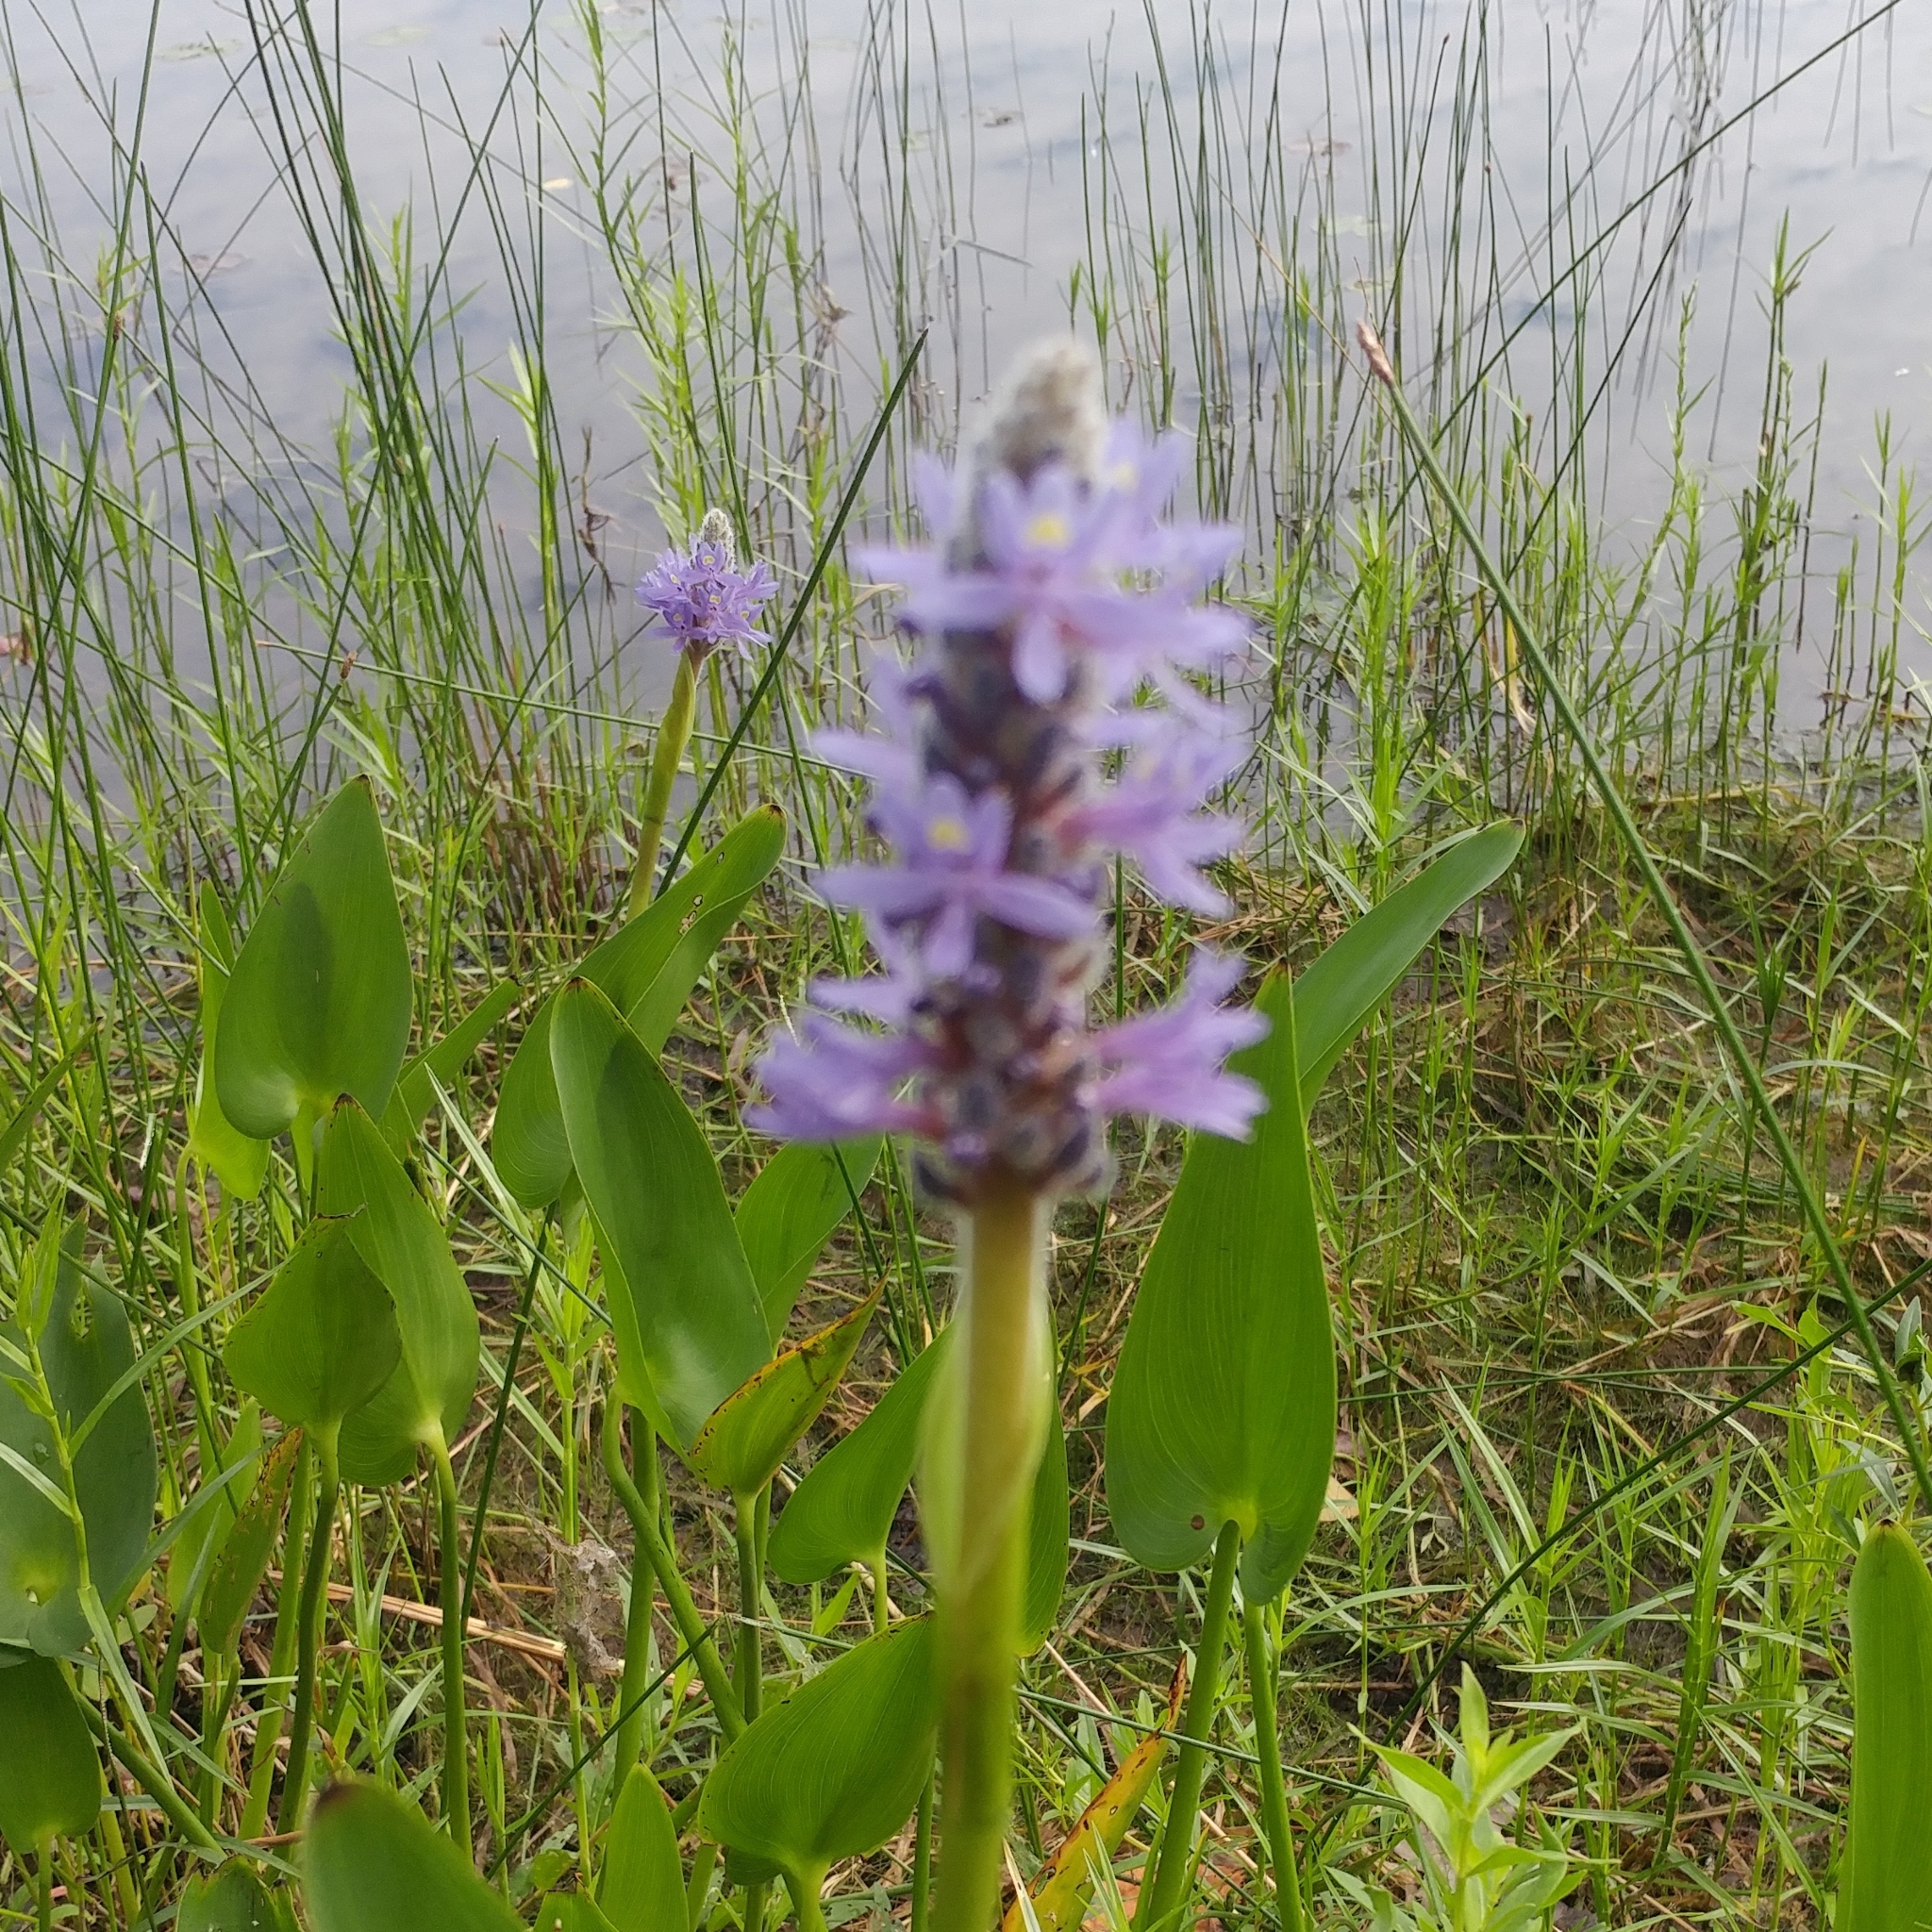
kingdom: Plantae
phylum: Tracheophyta
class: Liliopsida
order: Commelinales
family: Pontederiaceae
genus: Pontederia
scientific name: Pontederia cordata
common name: Pickerelweed
